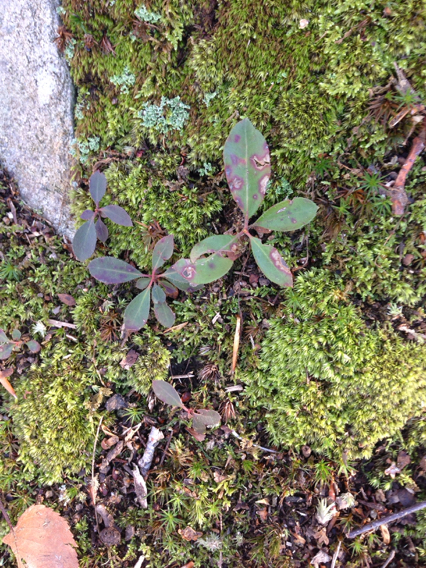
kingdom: Plantae
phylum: Tracheophyta
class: Magnoliopsida
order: Ericales
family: Ericaceae
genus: Gaultheria
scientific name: Gaultheria procumbens
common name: Checkerberry
